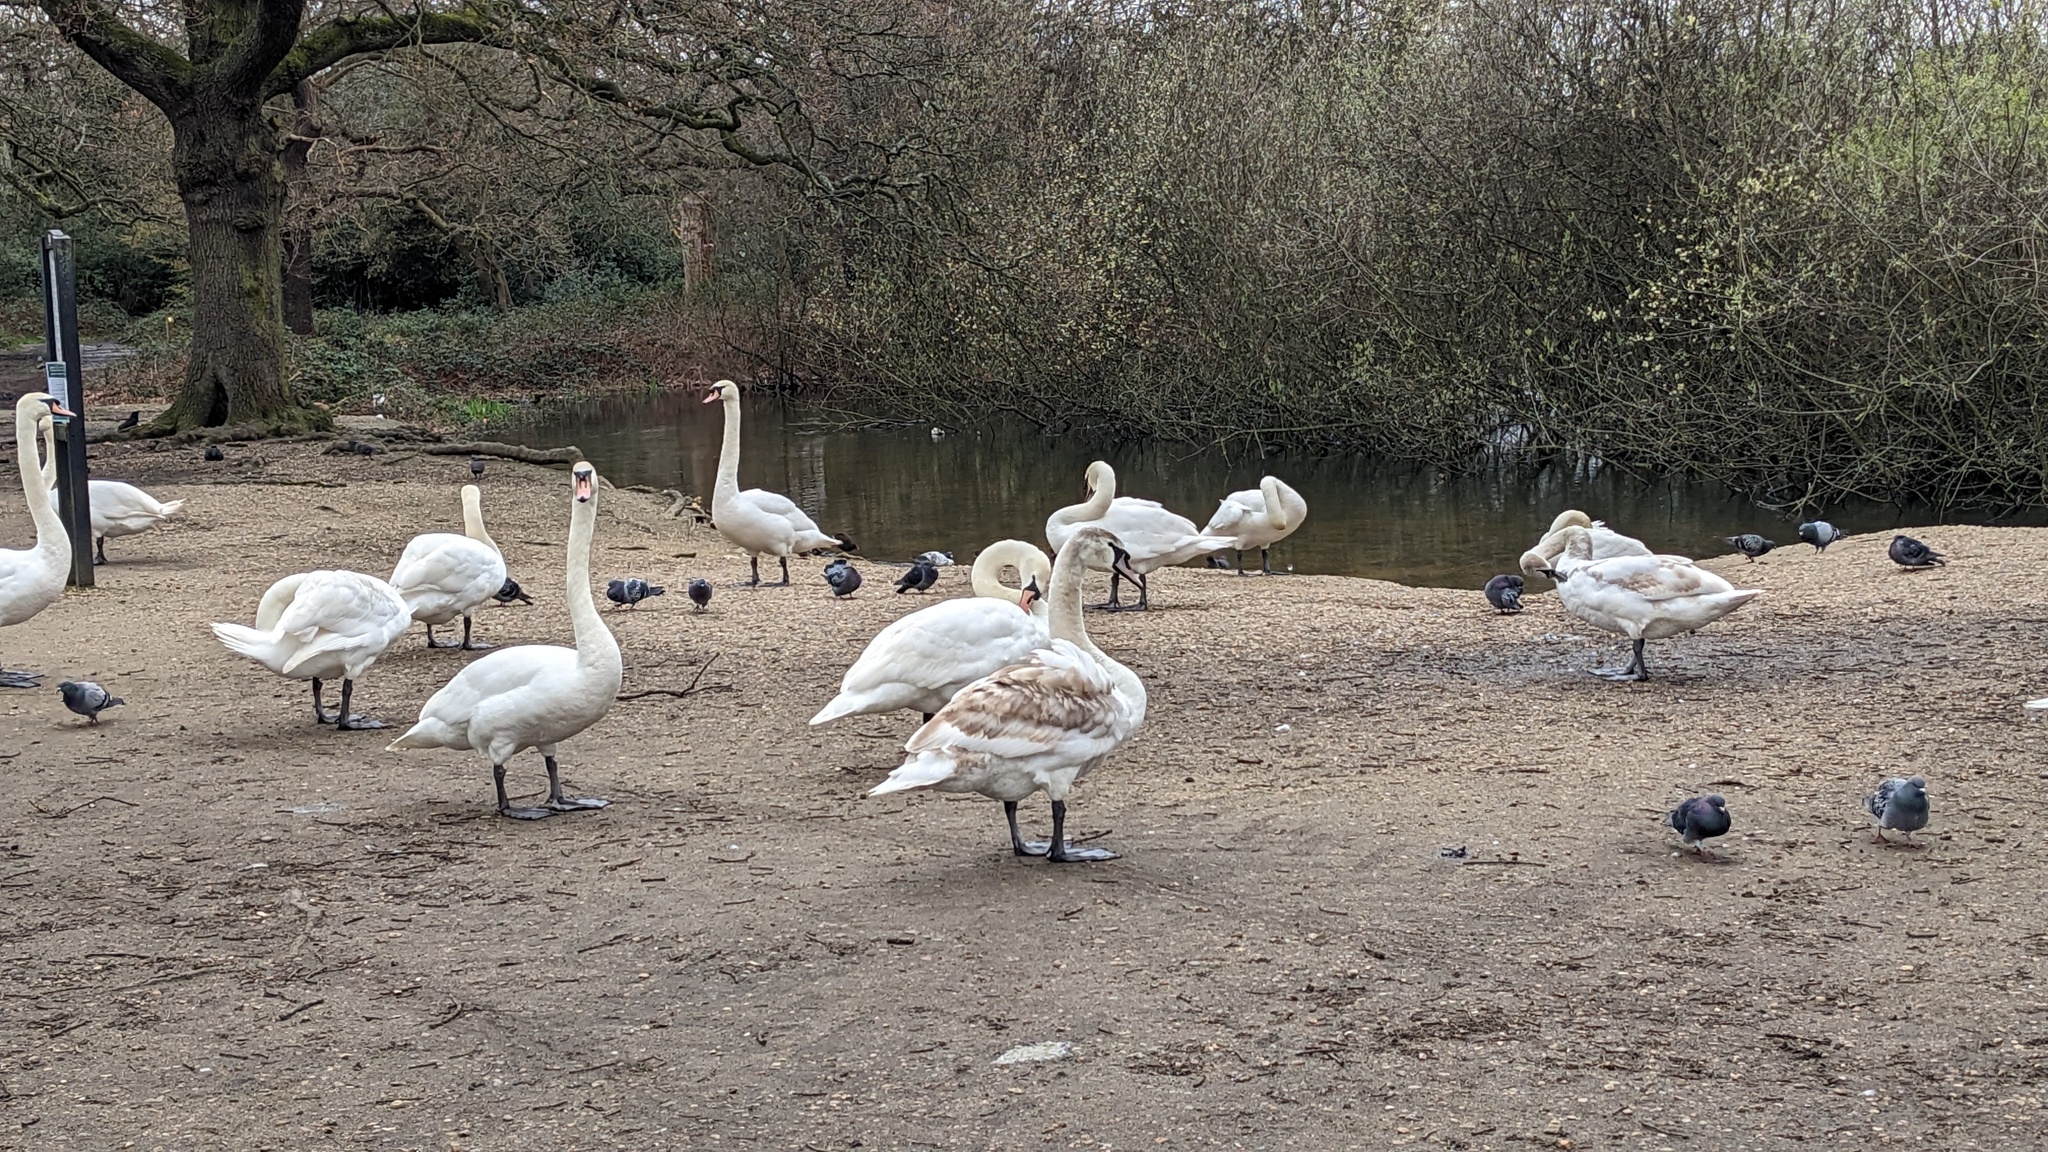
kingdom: Animalia
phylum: Chordata
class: Aves
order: Anseriformes
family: Anatidae
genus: Cygnus
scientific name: Cygnus olor
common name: Mute swan
